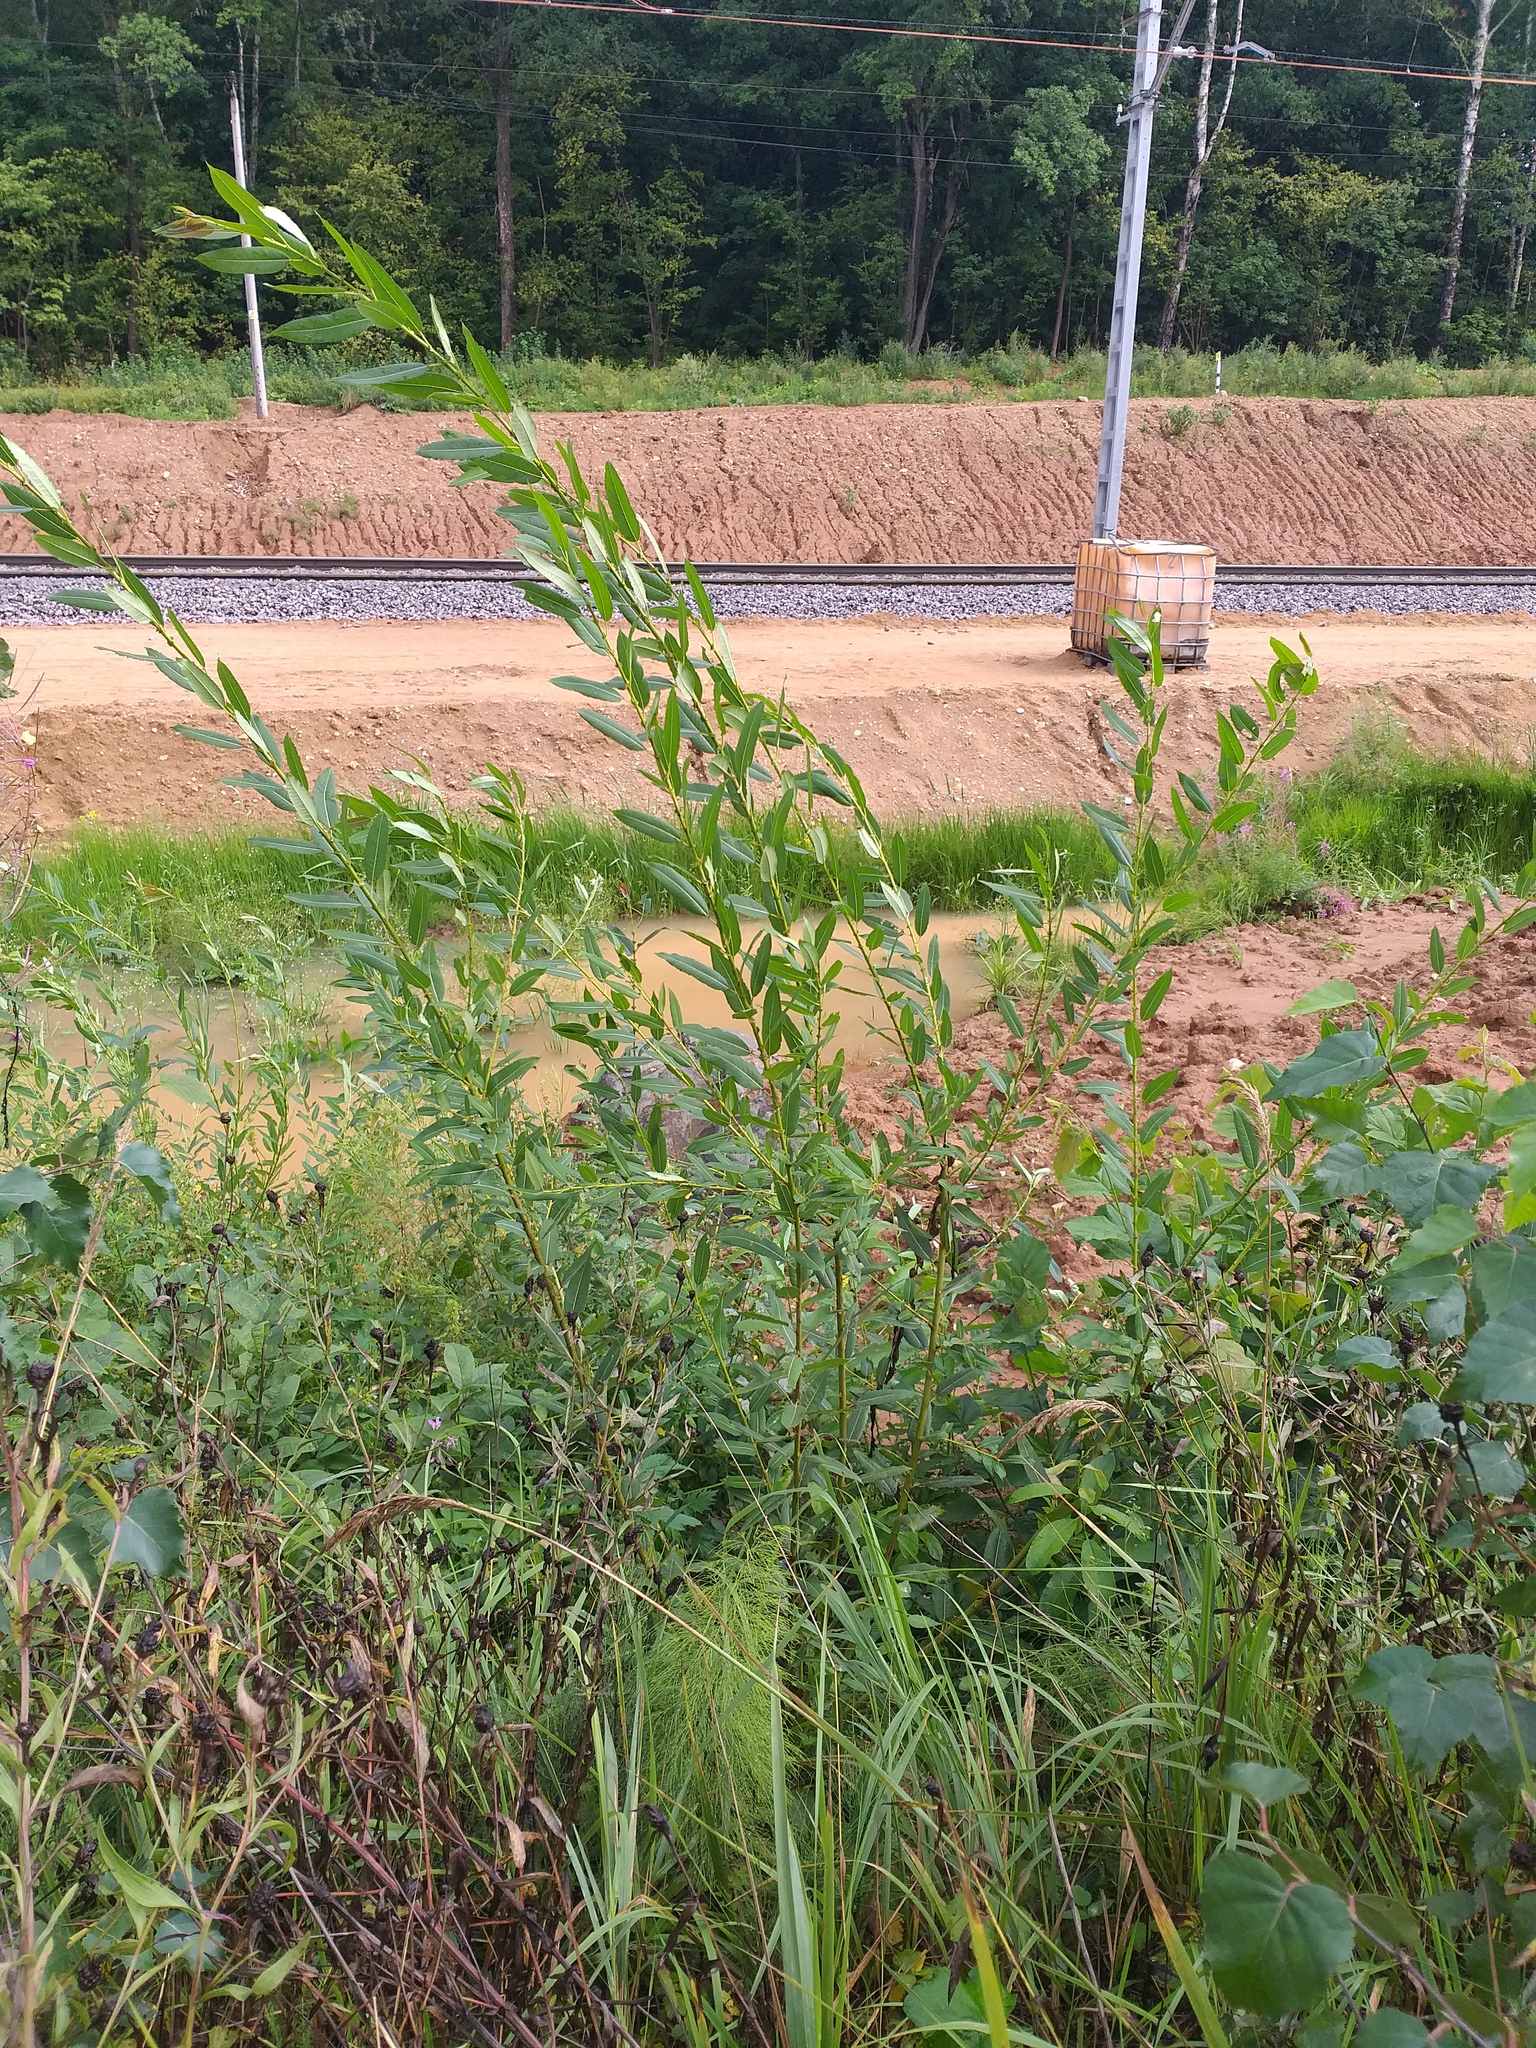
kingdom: Plantae
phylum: Tracheophyta
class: Magnoliopsida
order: Malpighiales
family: Salicaceae
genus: Salix
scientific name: Salix triandra
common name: Almond willow
